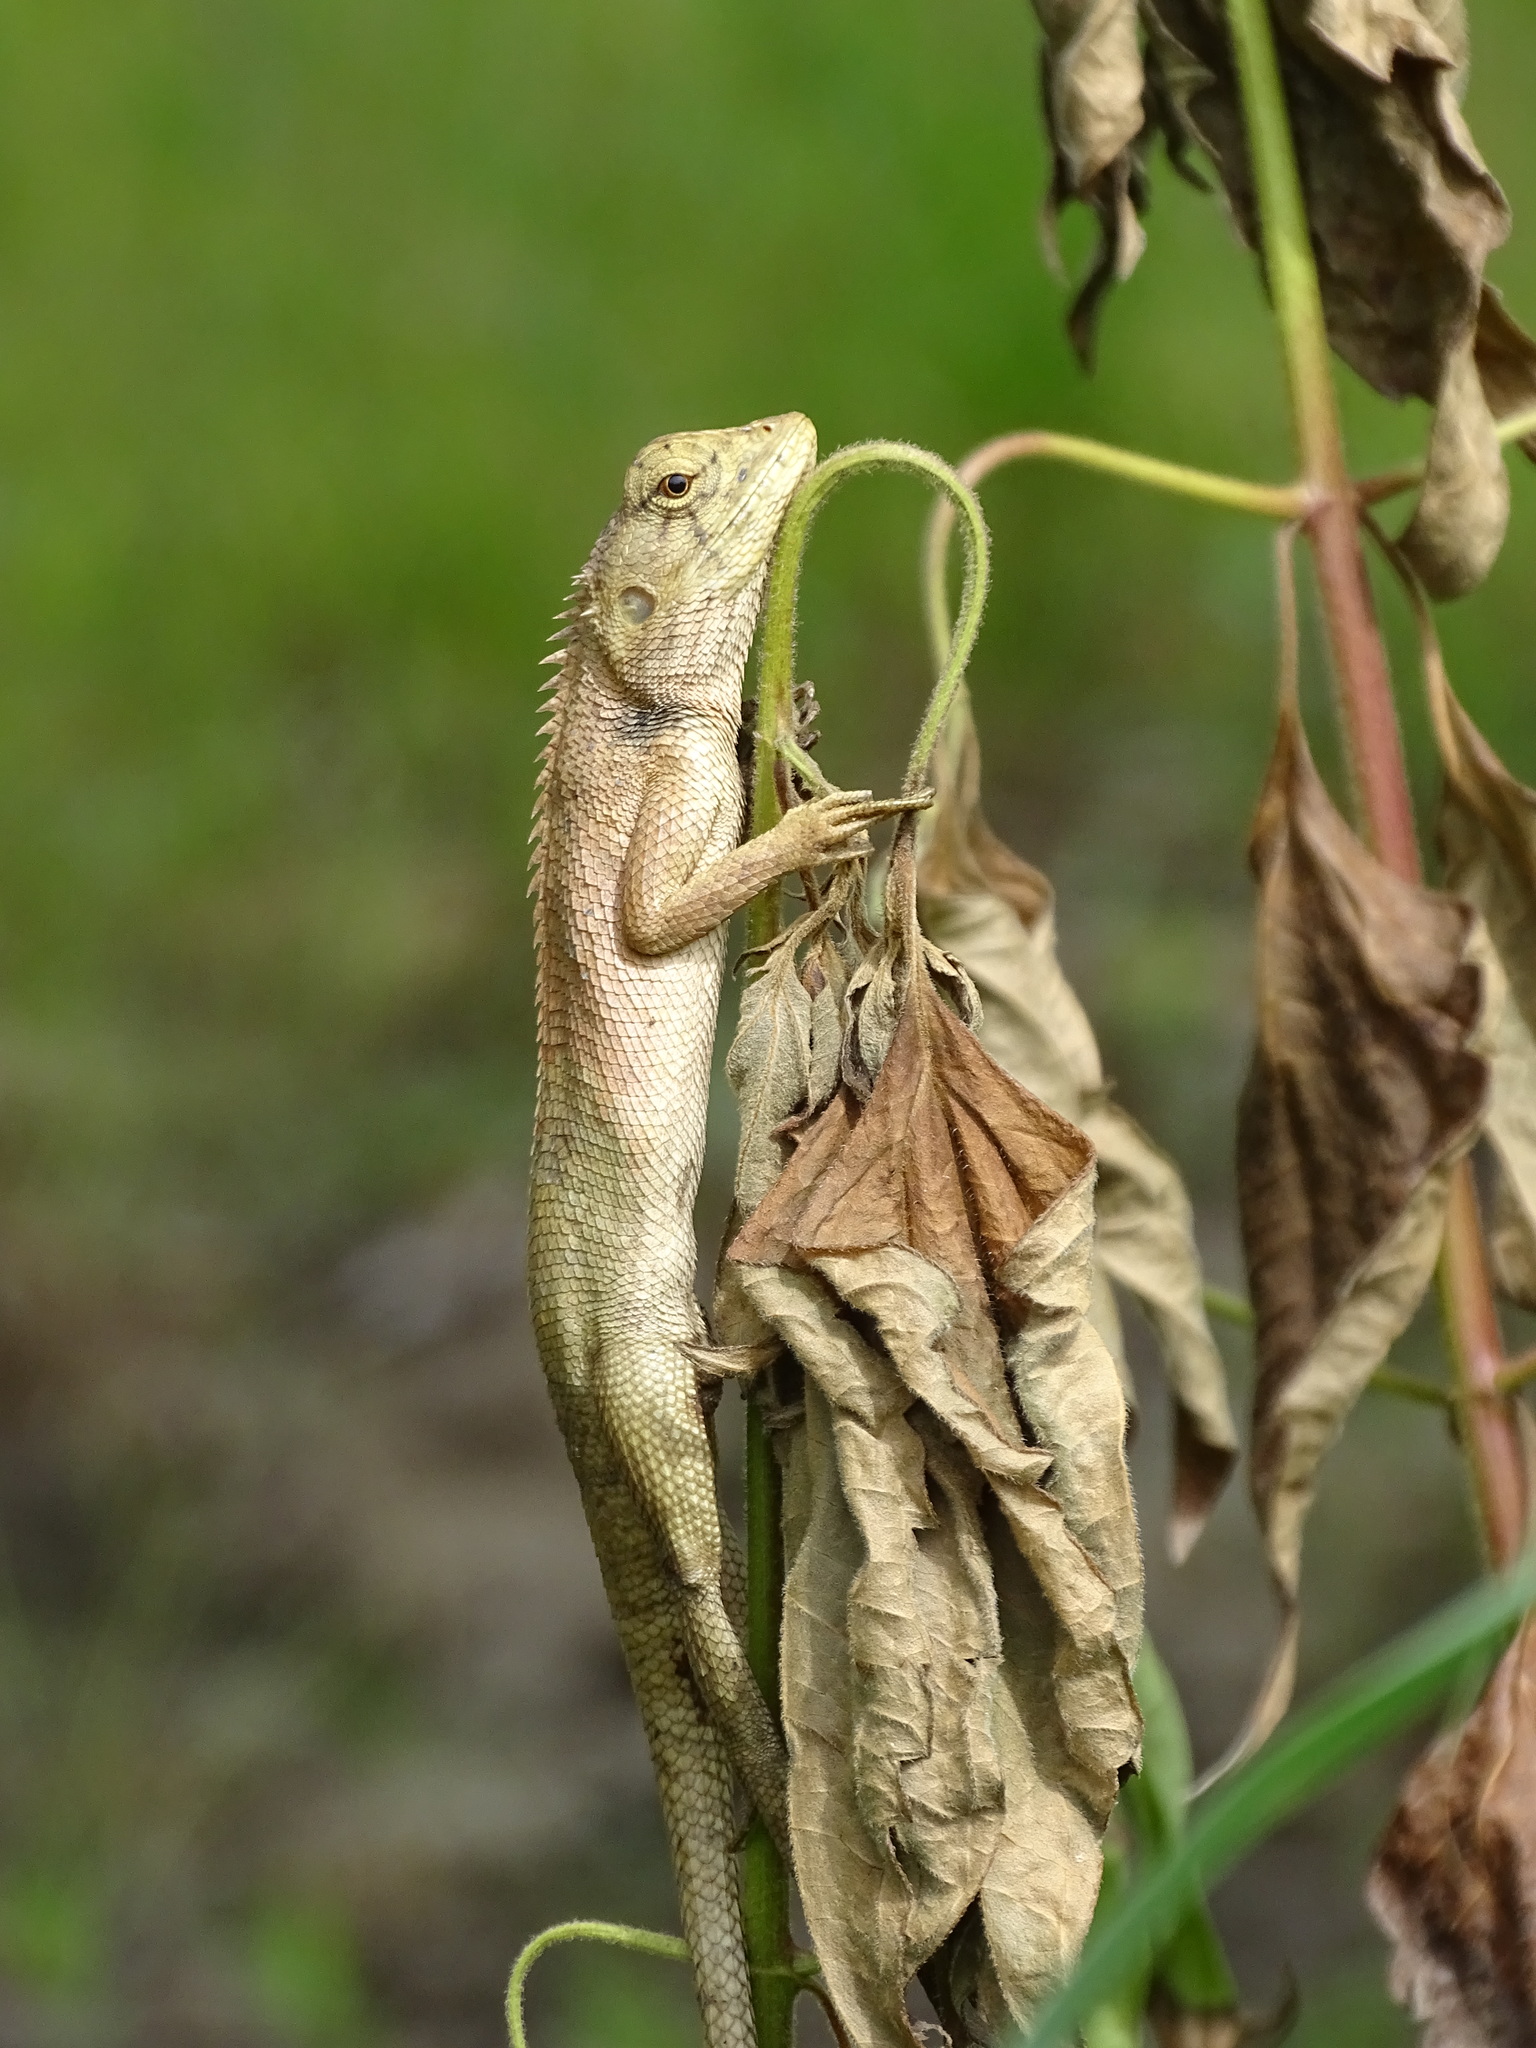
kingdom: Animalia
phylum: Chordata
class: Squamata
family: Agamidae
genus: Calotes
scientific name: Calotes versicolor
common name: Oriental garden lizard
